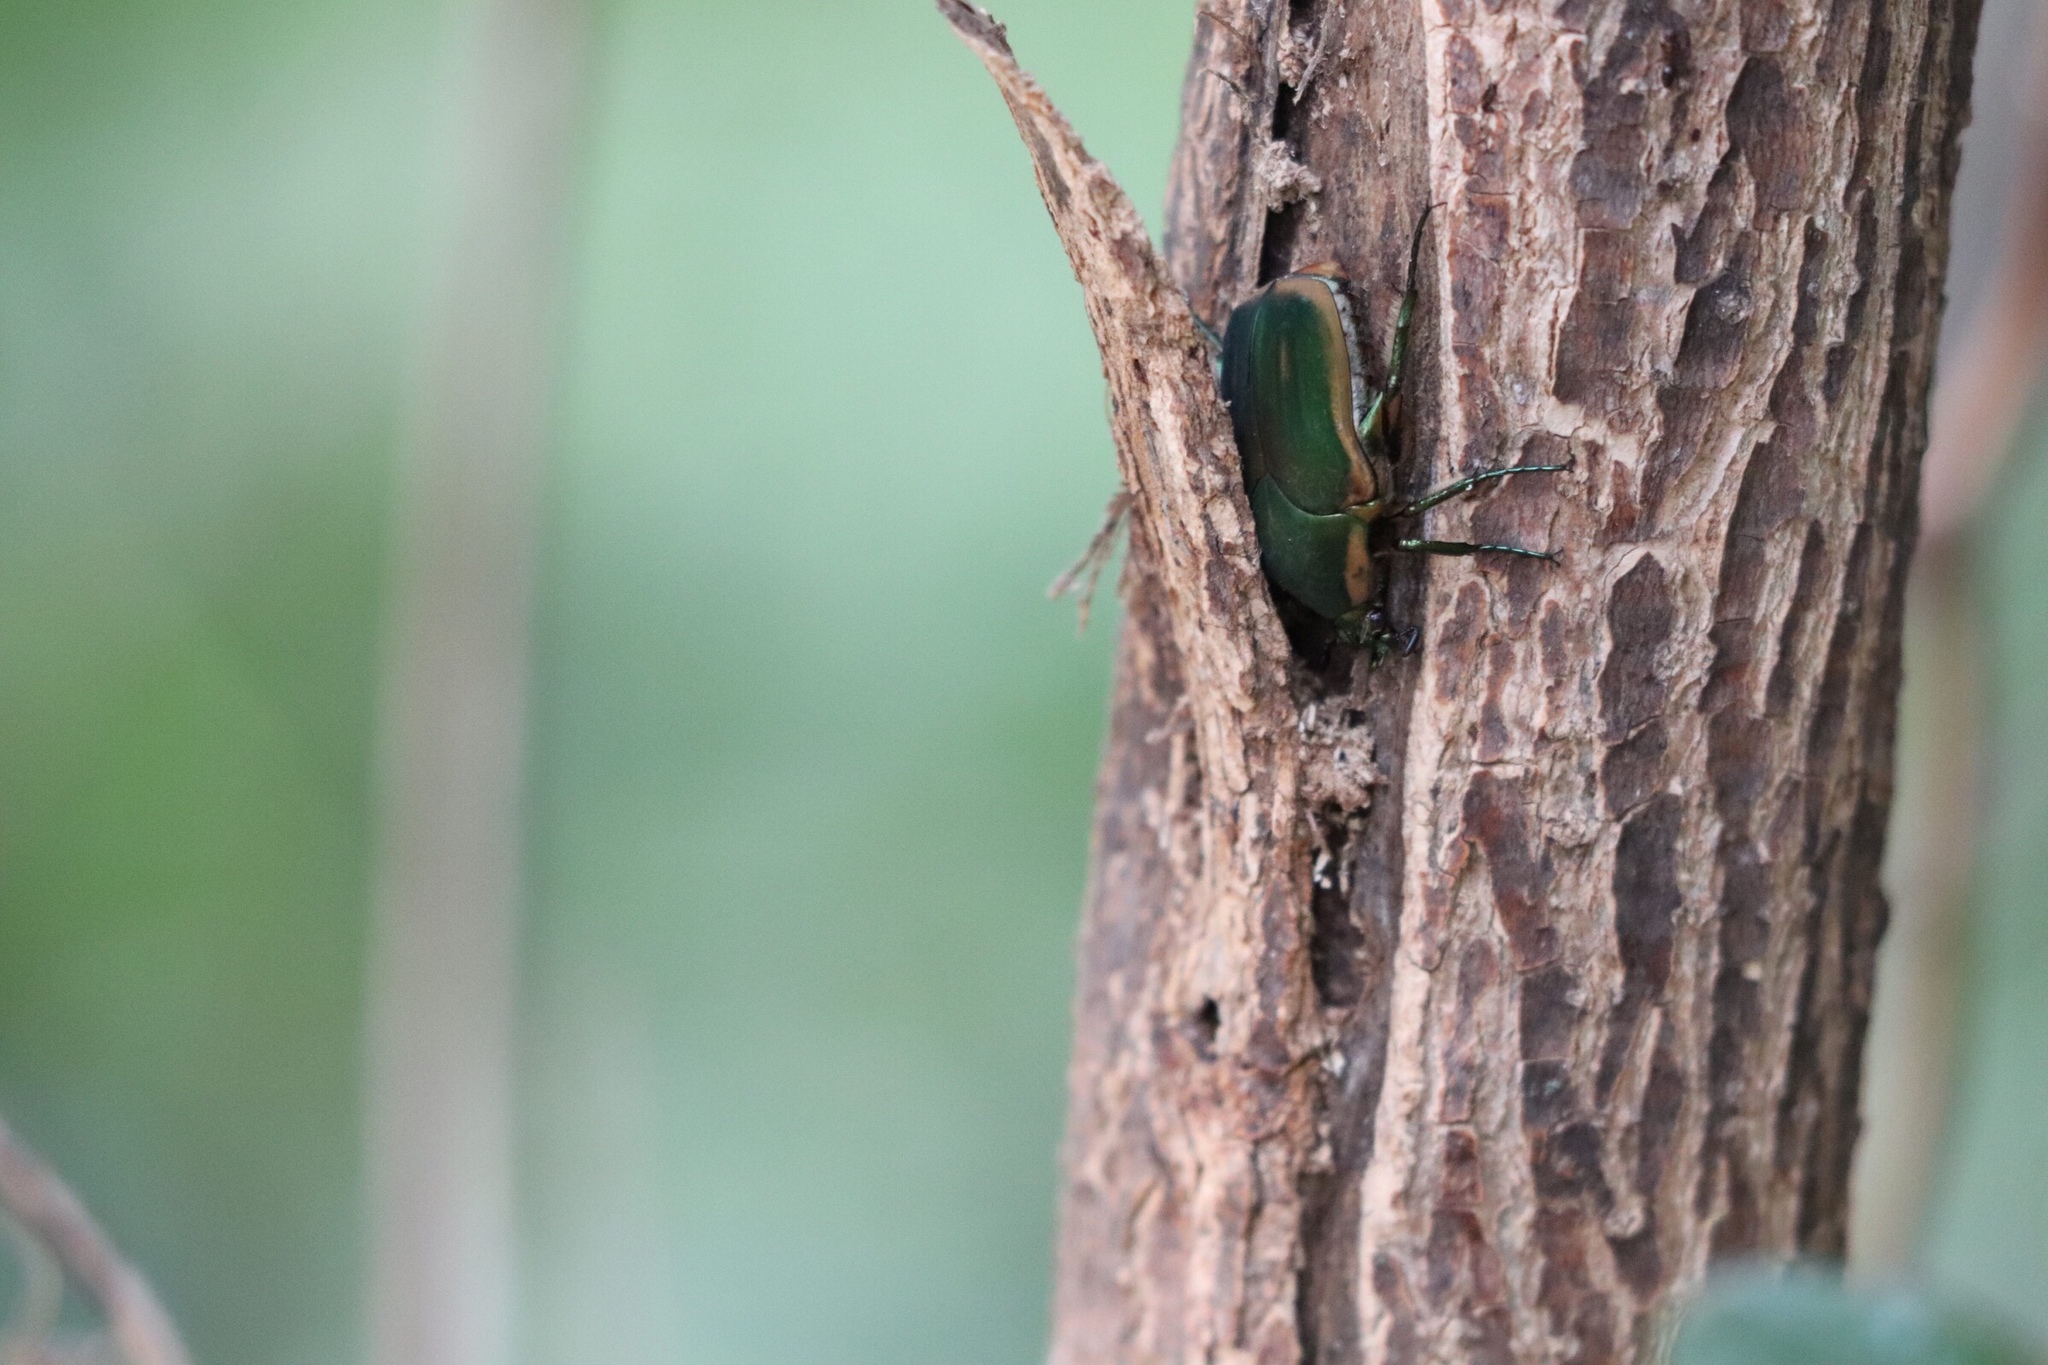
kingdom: Animalia
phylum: Arthropoda
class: Insecta
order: Coleoptera
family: Scarabaeidae
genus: Cotinis
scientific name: Cotinis nitida
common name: Common green june beetle
